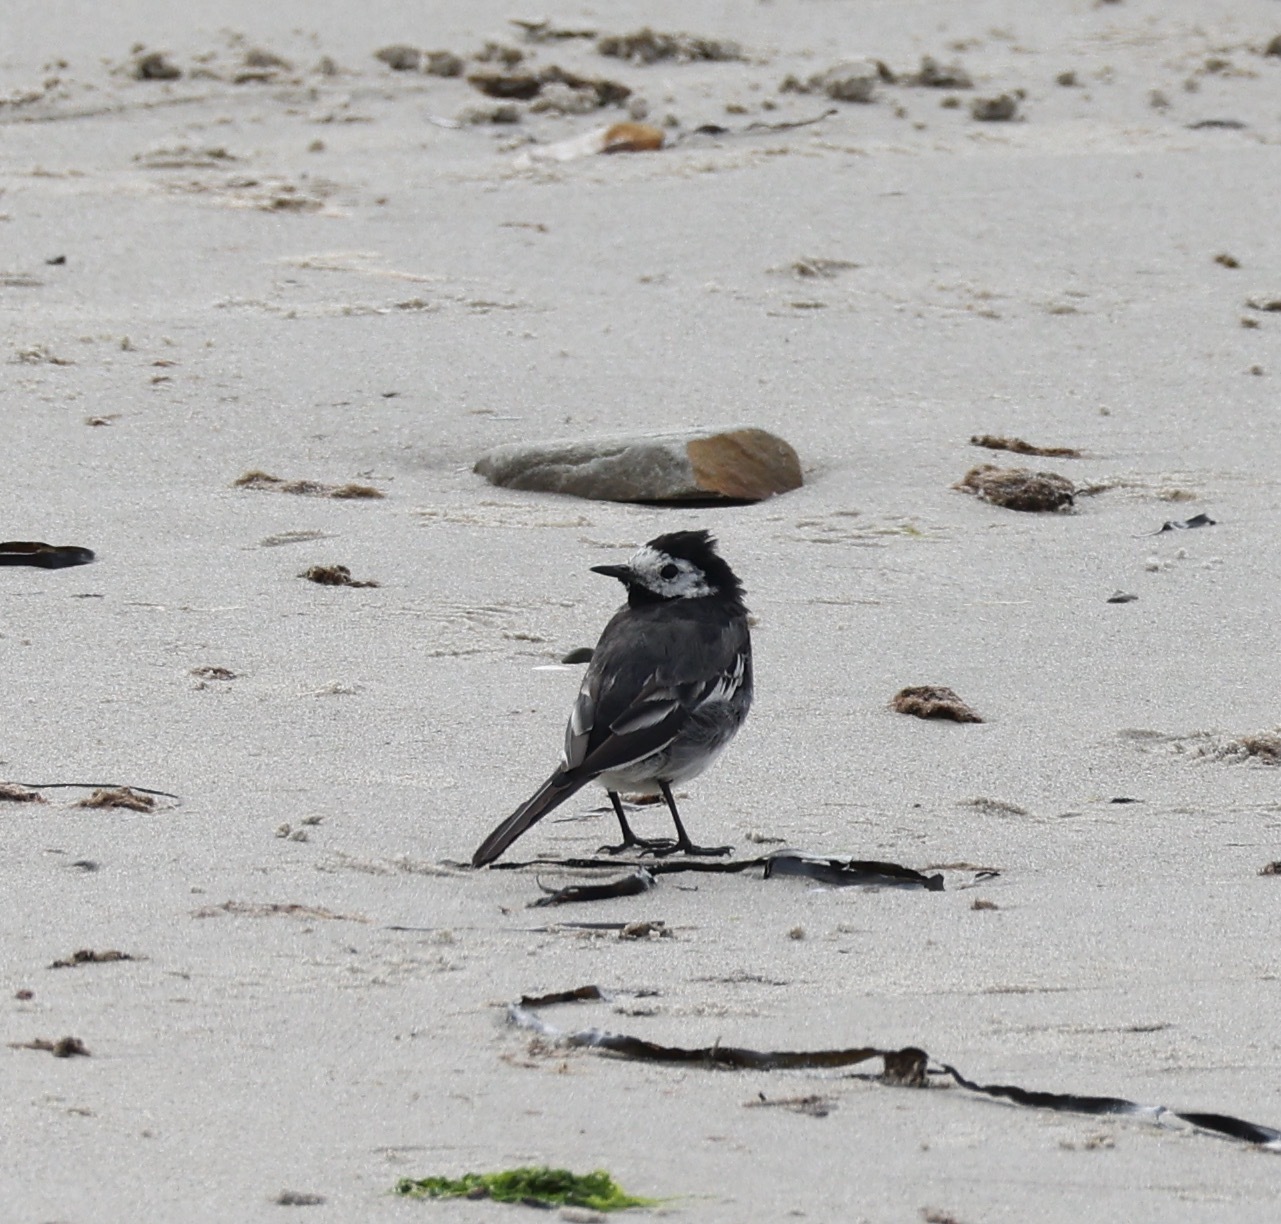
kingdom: Animalia
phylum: Chordata
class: Aves
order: Passeriformes
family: Motacillidae
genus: Motacilla
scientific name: Motacilla alba
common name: White wagtail
